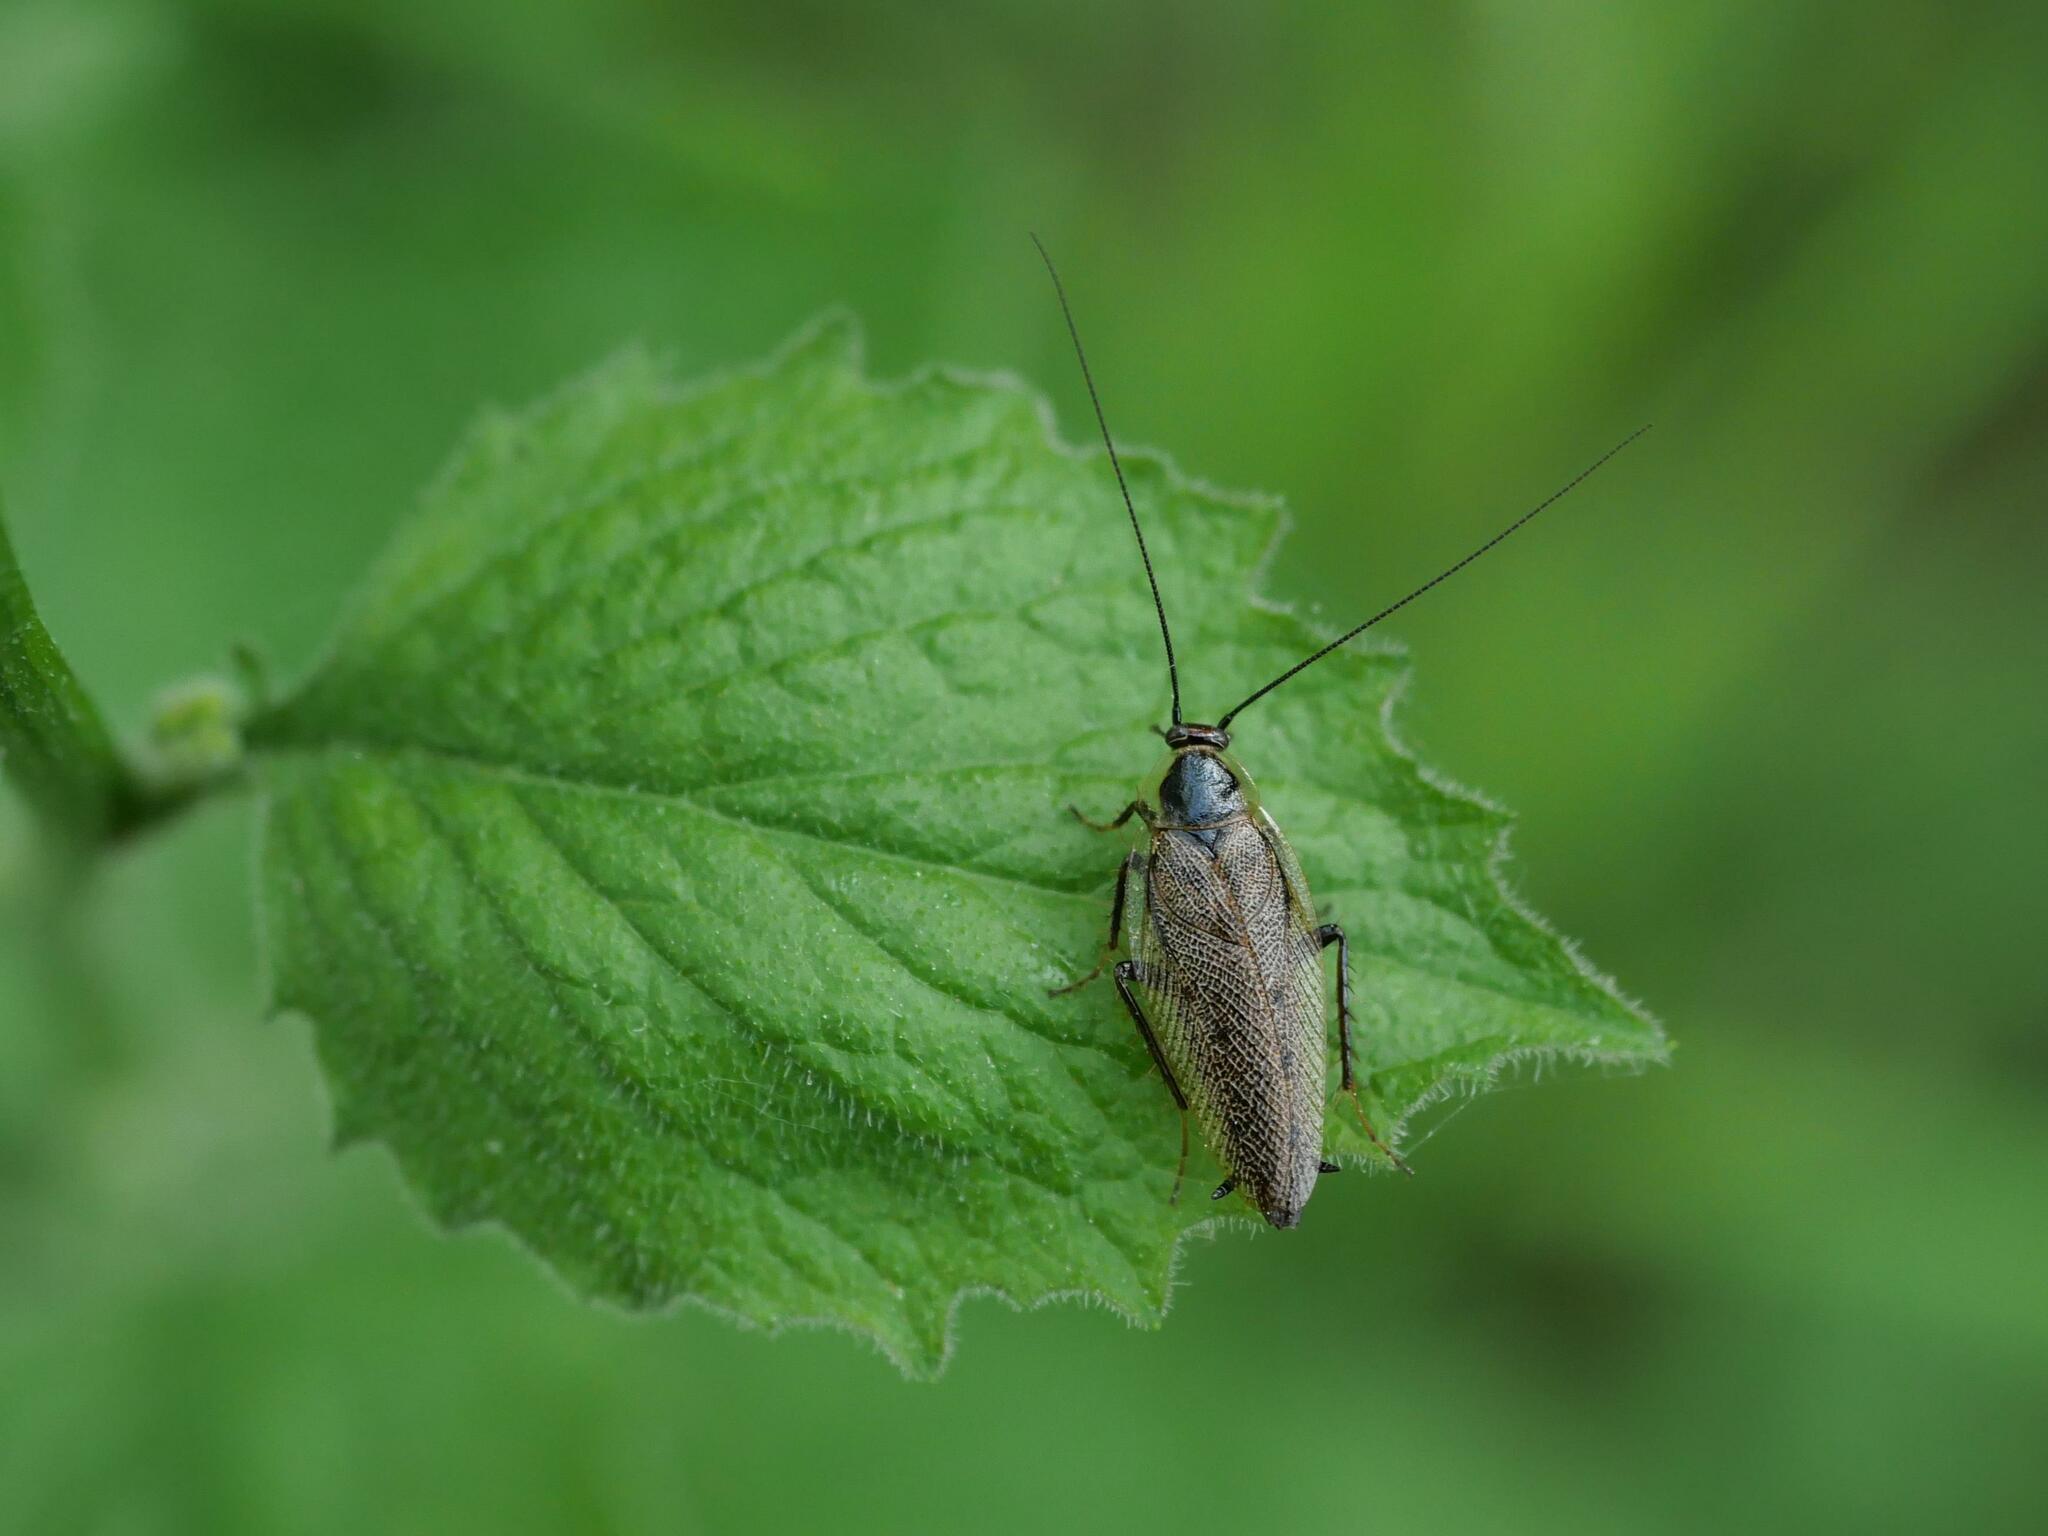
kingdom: Animalia
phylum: Arthropoda
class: Insecta
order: Blattodea
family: Ectobiidae
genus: Ectobius
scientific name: Ectobius lapponicus
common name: Dusky cockroach
